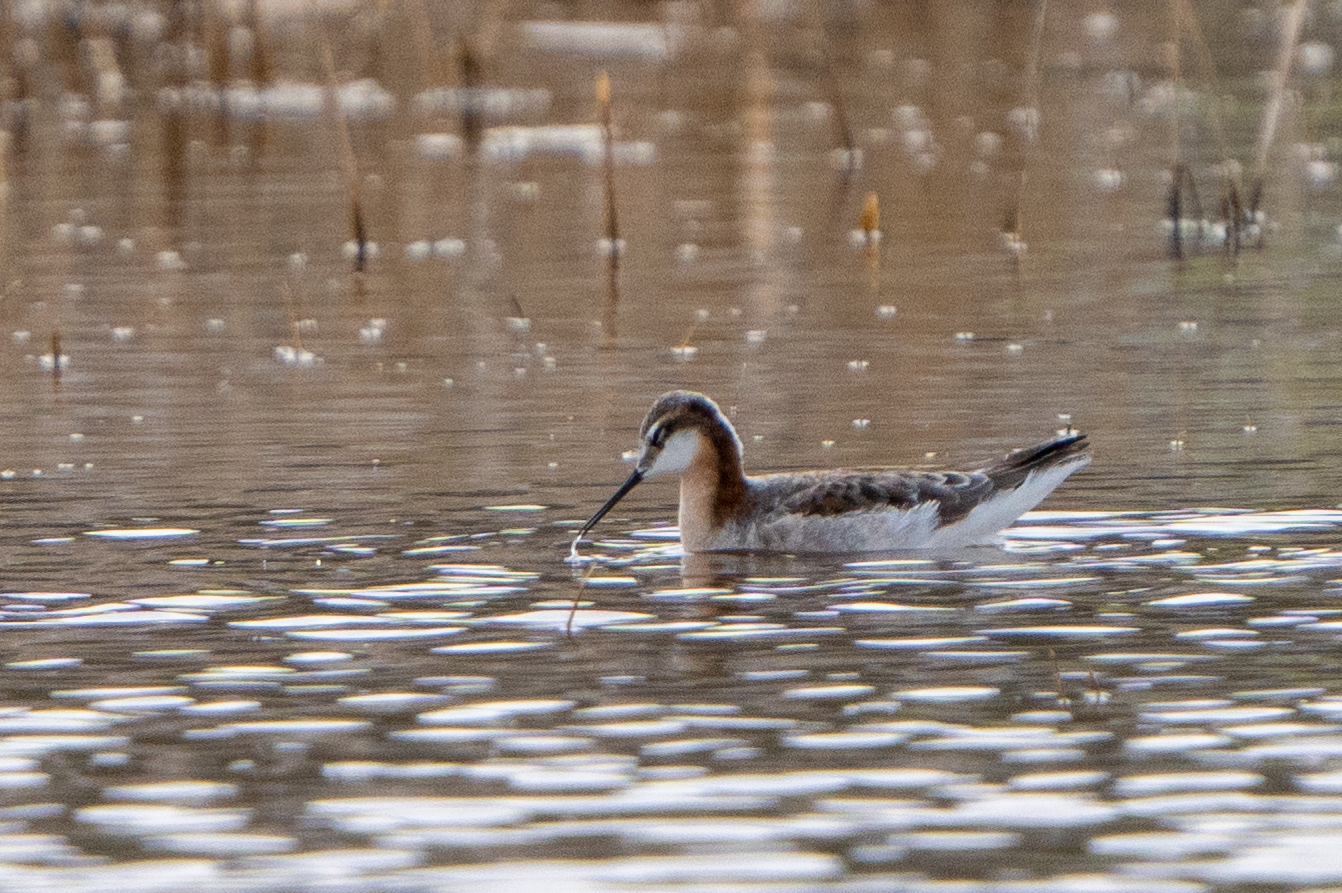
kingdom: Animalia
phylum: Chordata
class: Aves
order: Charadriiformes
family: Scolopacidae
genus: Phalaropus
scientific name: Phalaropus tricolor
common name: Wilson's phalarope
